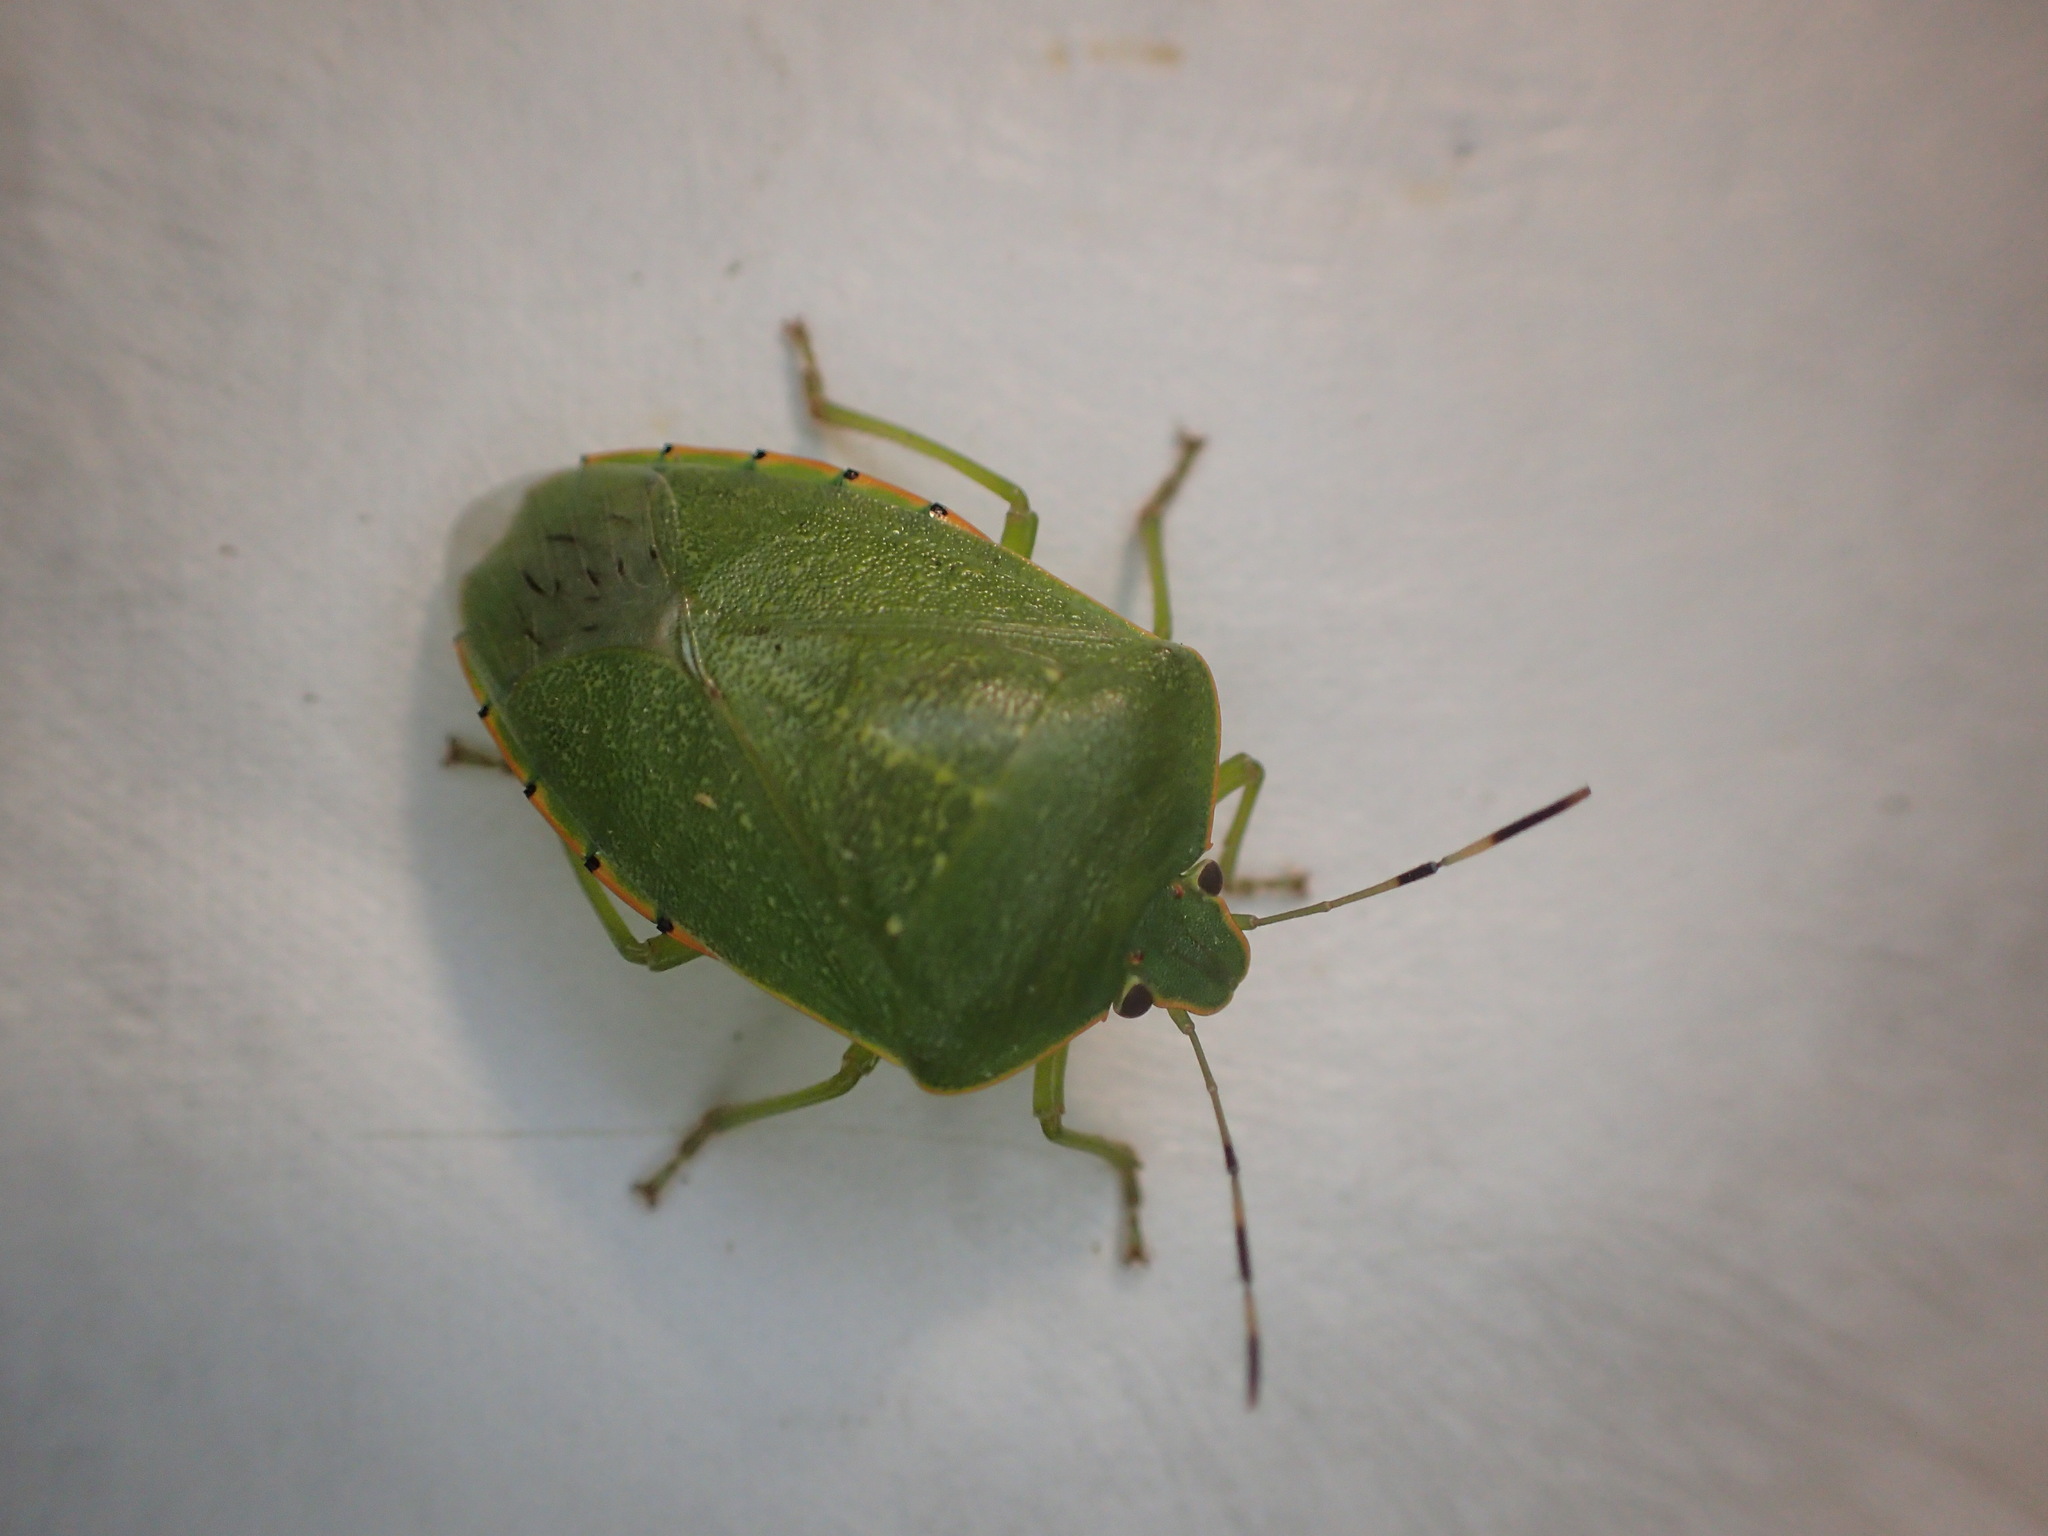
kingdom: Animalia
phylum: Arthropoda
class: Insecta
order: Hemiptera
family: Pentatomidae
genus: Chinavia
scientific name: Chinavia hilaris
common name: Green stink bug
